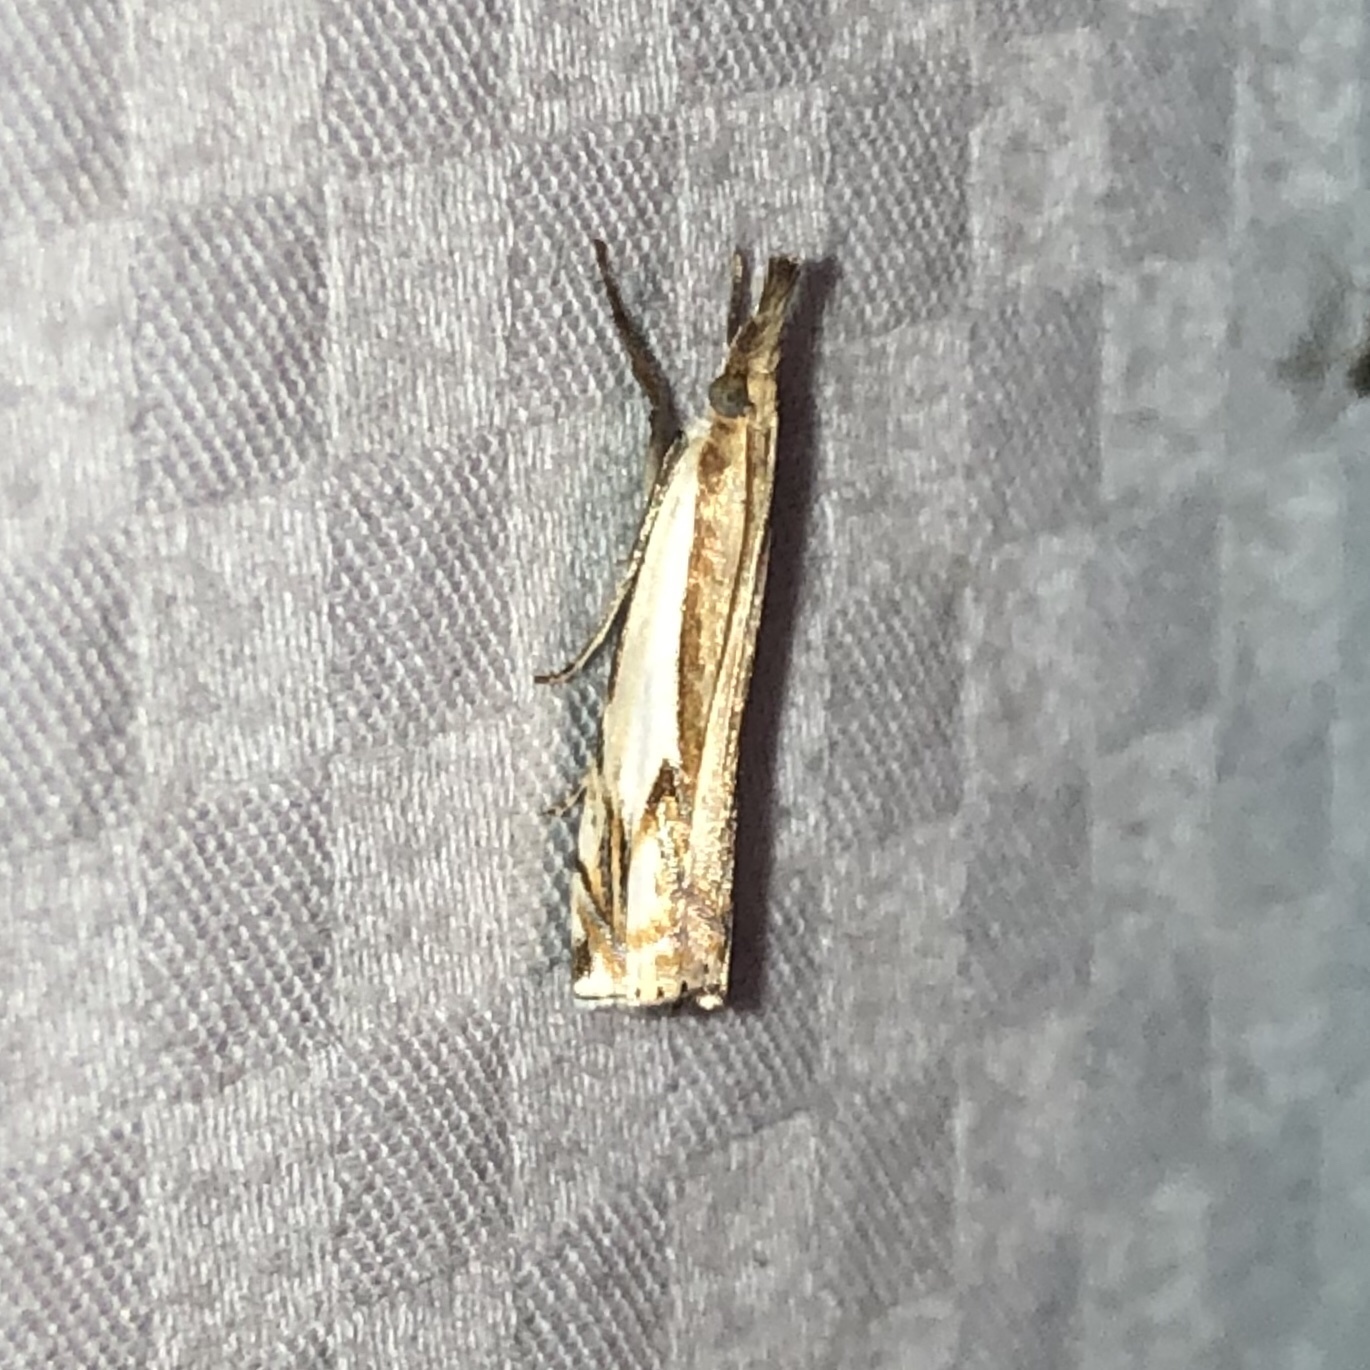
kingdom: Animalia
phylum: Arthropoda
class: Insecta
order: Lepidoptera
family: Crambidae
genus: Crambus
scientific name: Crambus agitatellus
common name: Double-banded grass-veneer
